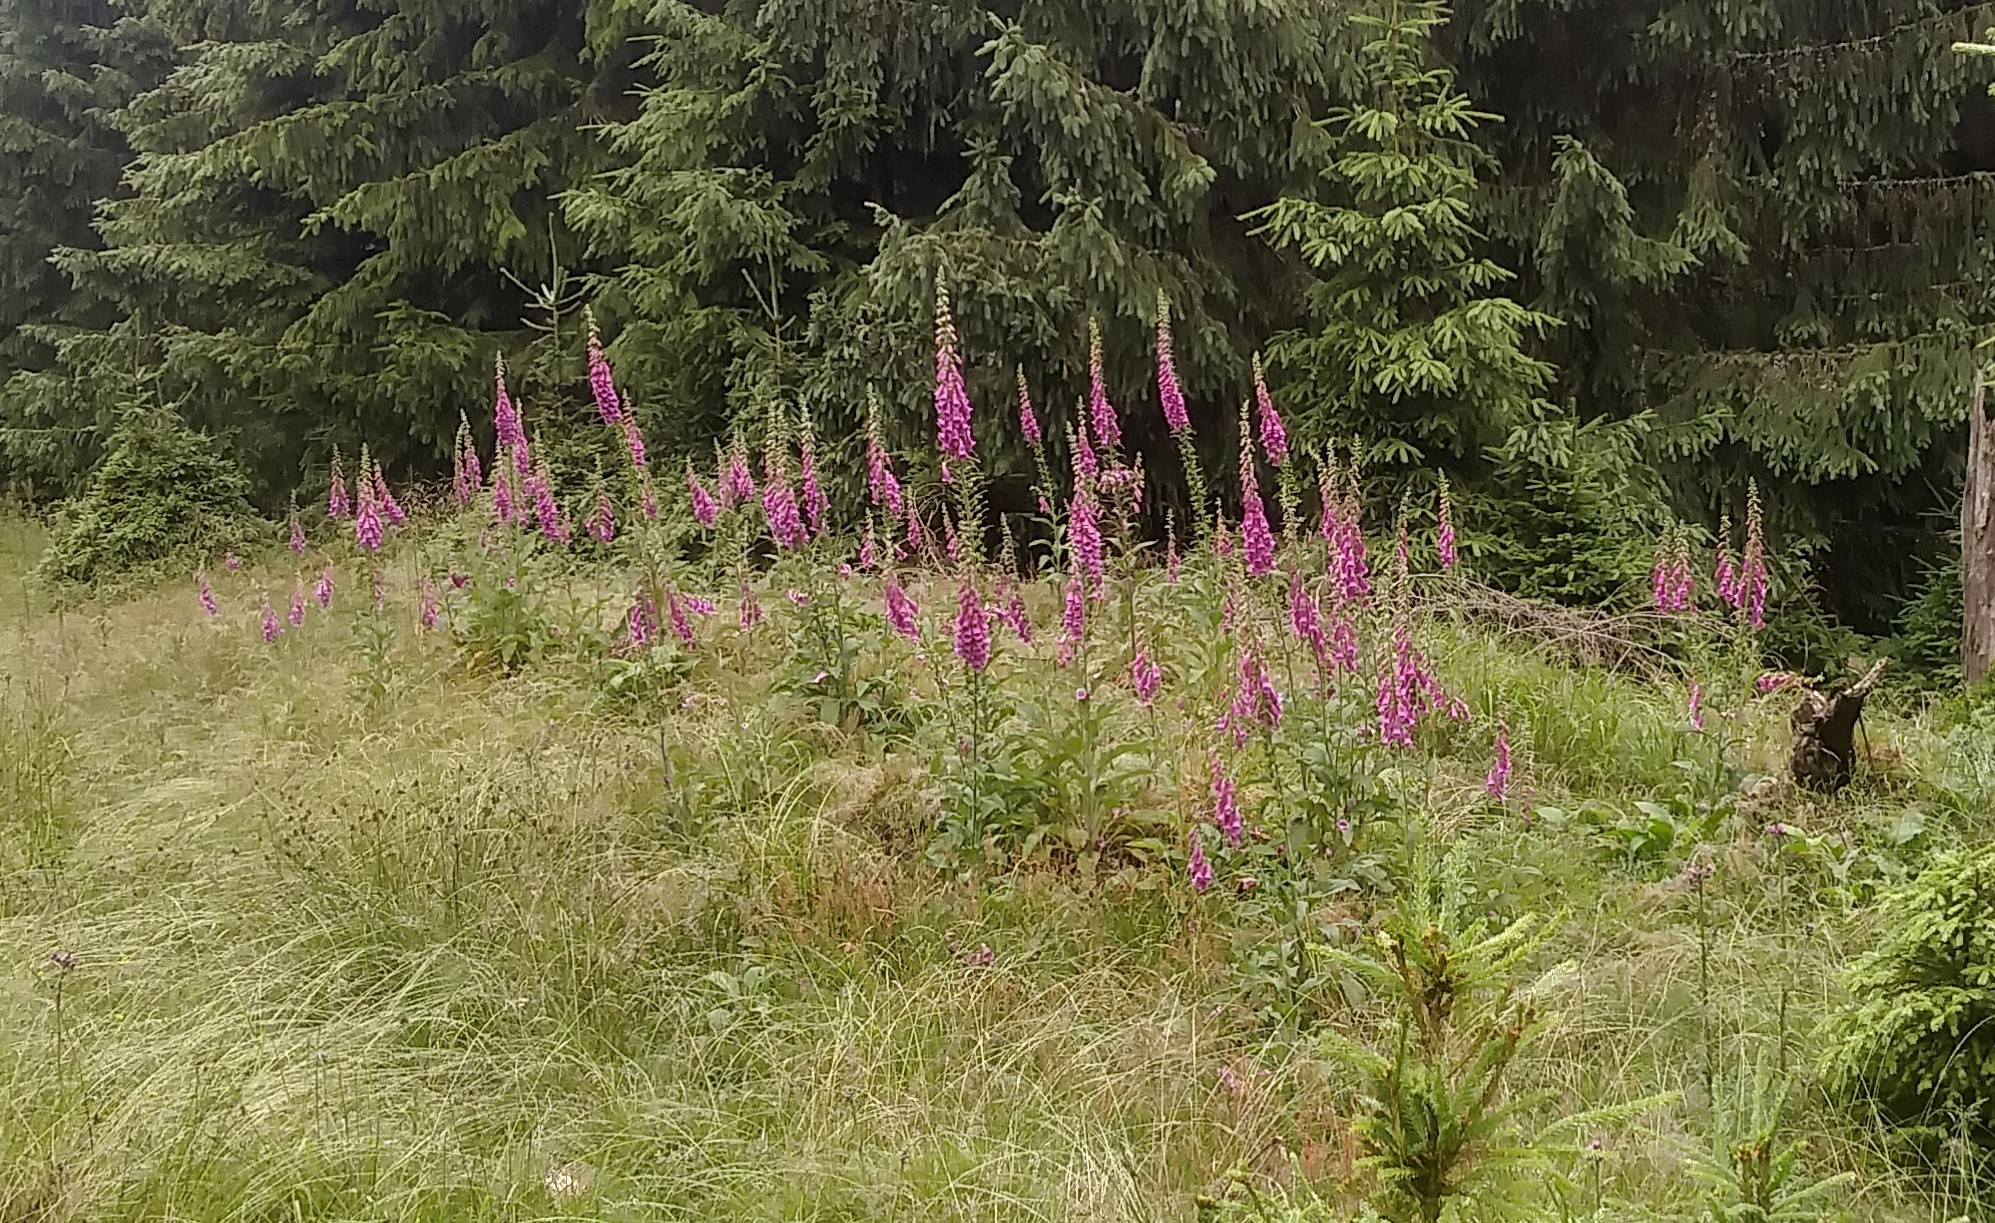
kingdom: Plantae
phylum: Tracheophyta
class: Magnoliopsida
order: Lamiales
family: Plantaginaceae
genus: Digitalis
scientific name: Digitalis purpurea
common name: Foxglove
